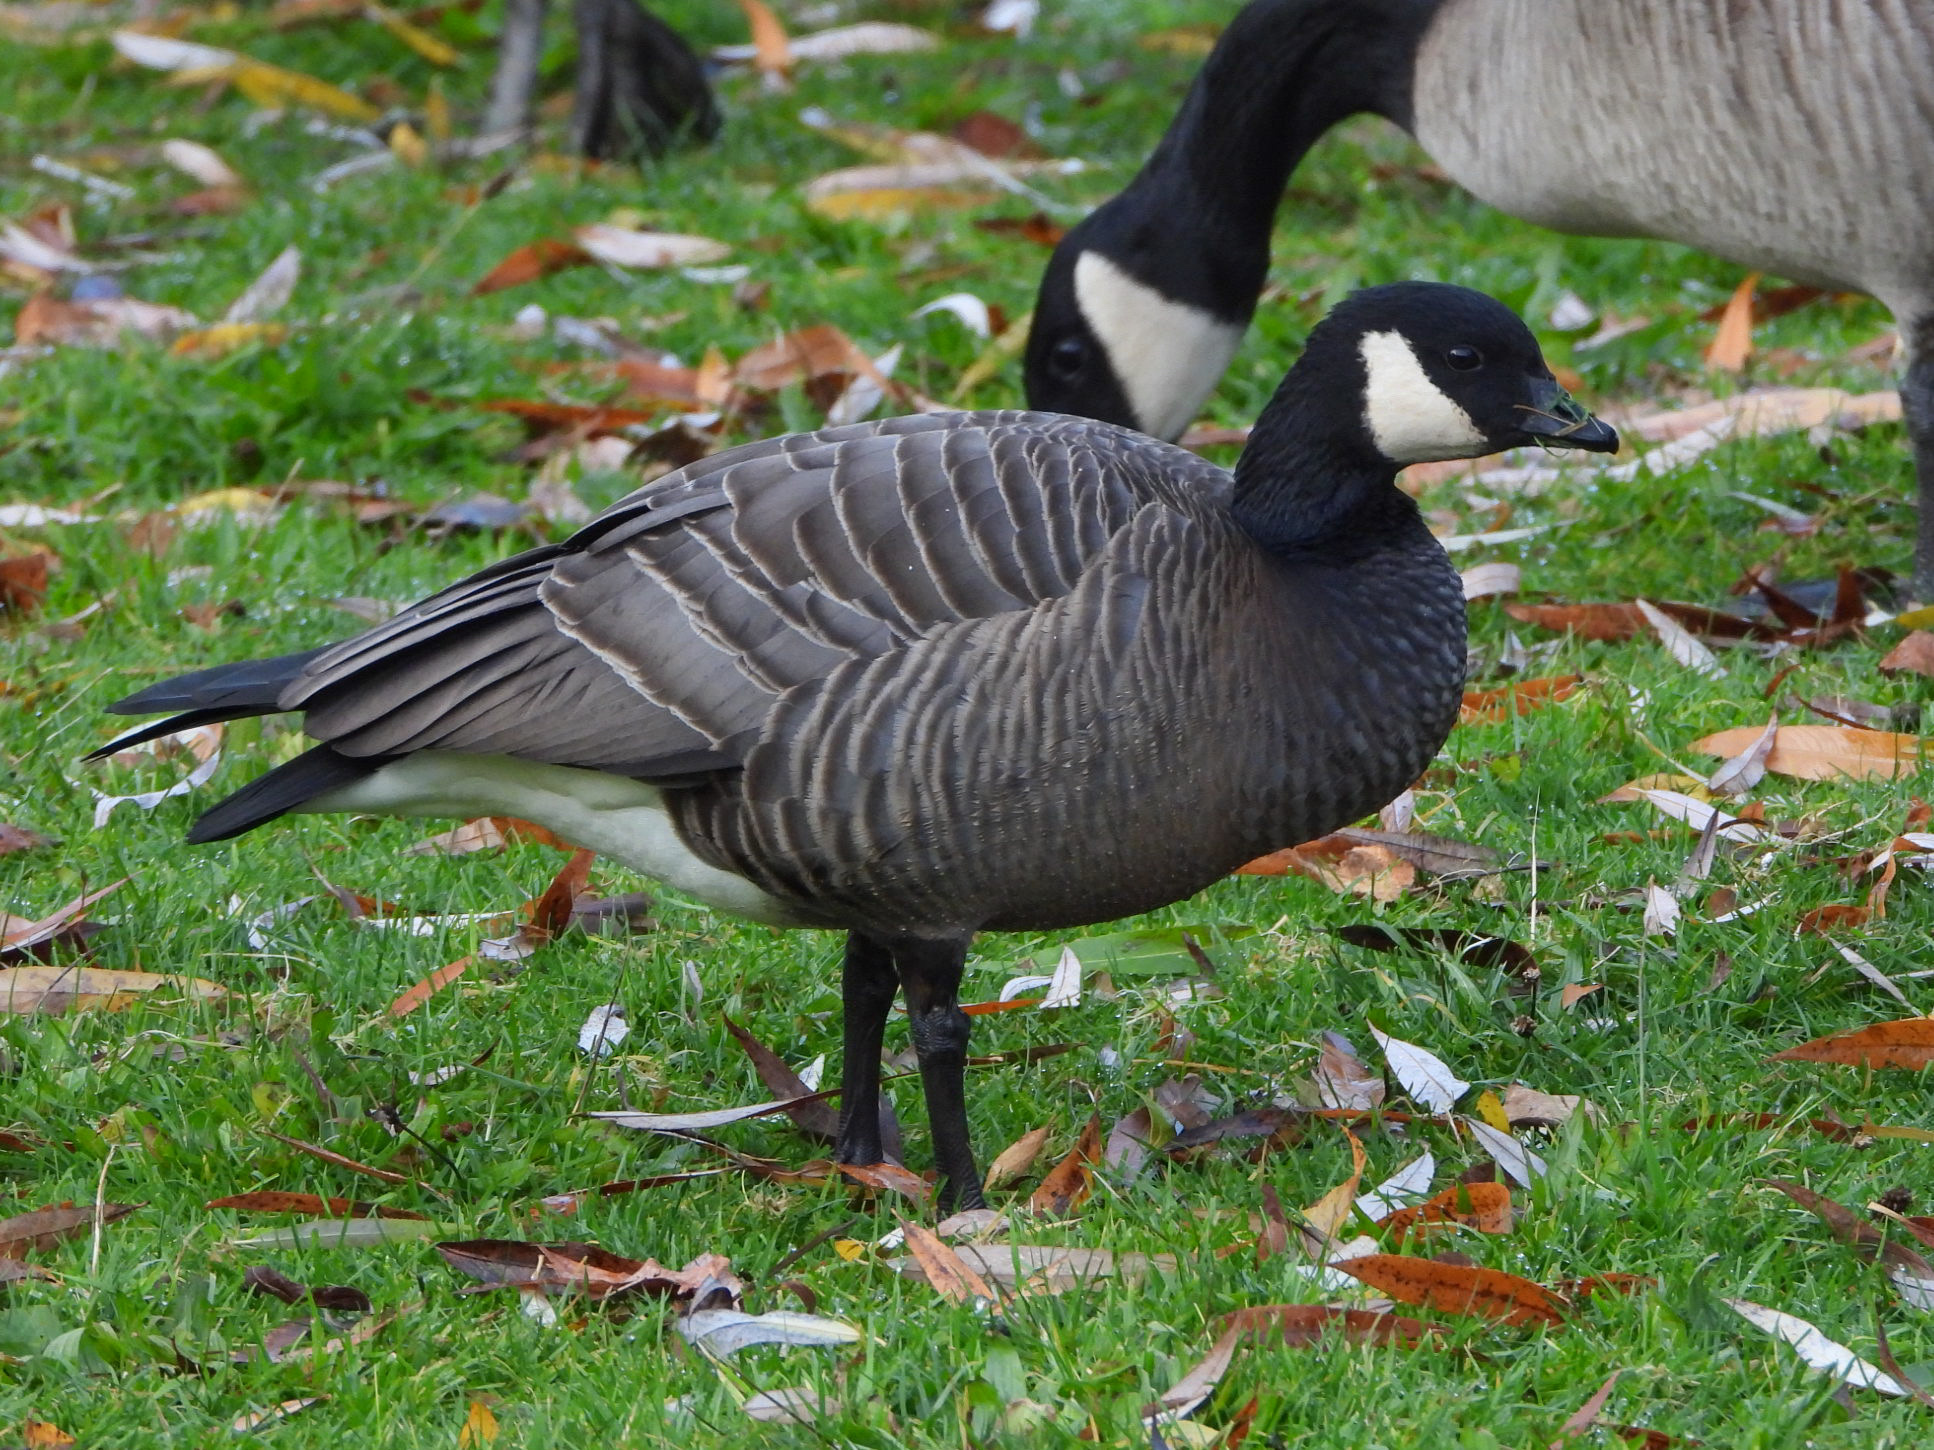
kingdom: Animalia
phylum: Chordata
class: Aves
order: Anseriformes
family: Anatidae
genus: Branta
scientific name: Branta hutchinsii
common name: Cackling goose
